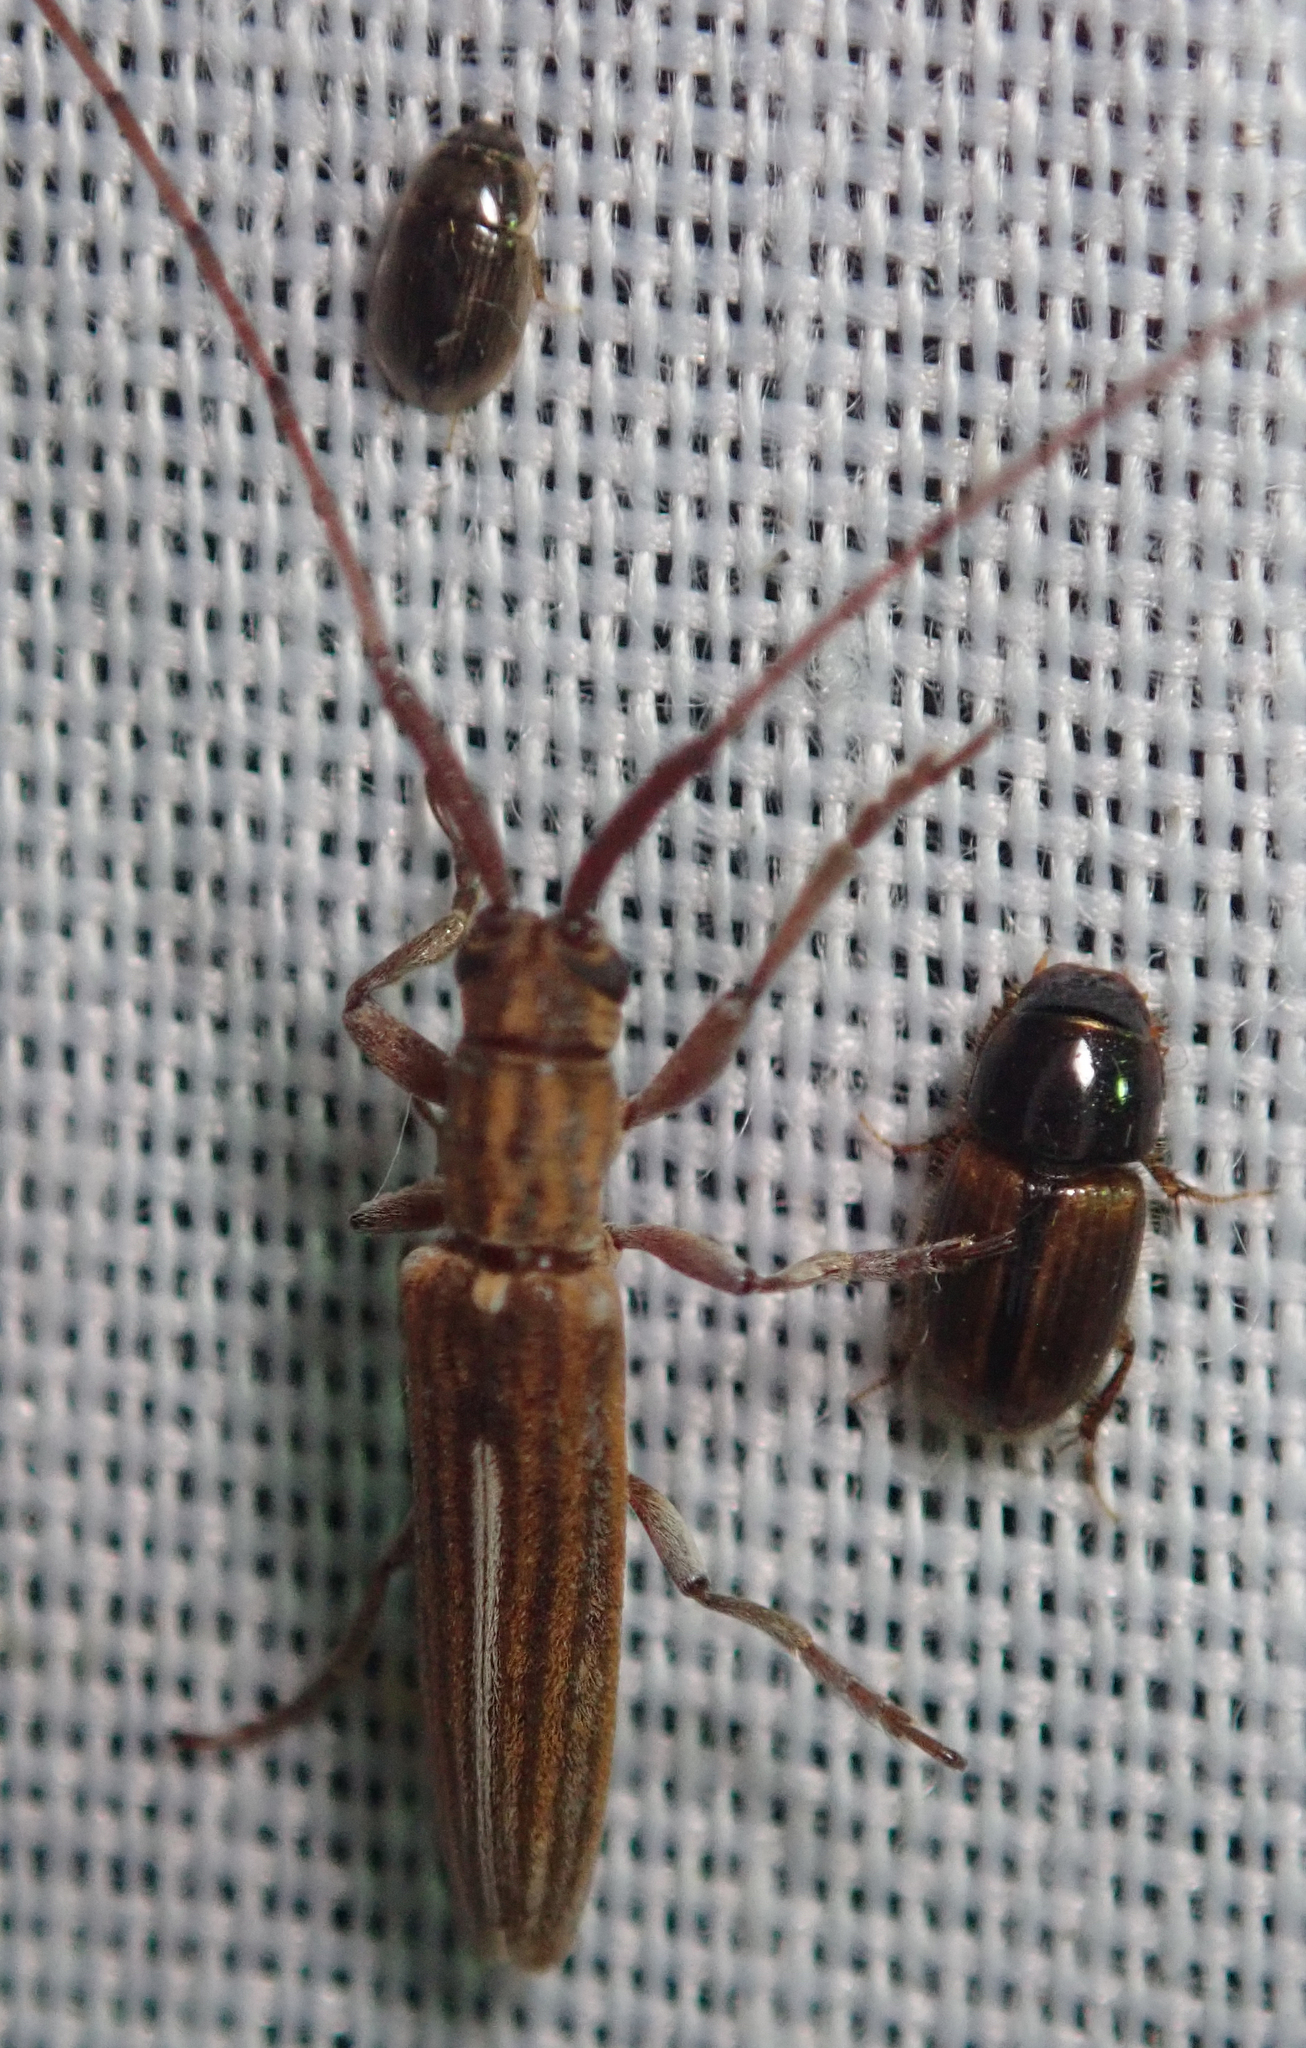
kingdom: Animalia
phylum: Arthropoda
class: Insecta
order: Coleoptera
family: Cerambycidae
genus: Hyllisia
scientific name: Hyllisia persimilis
